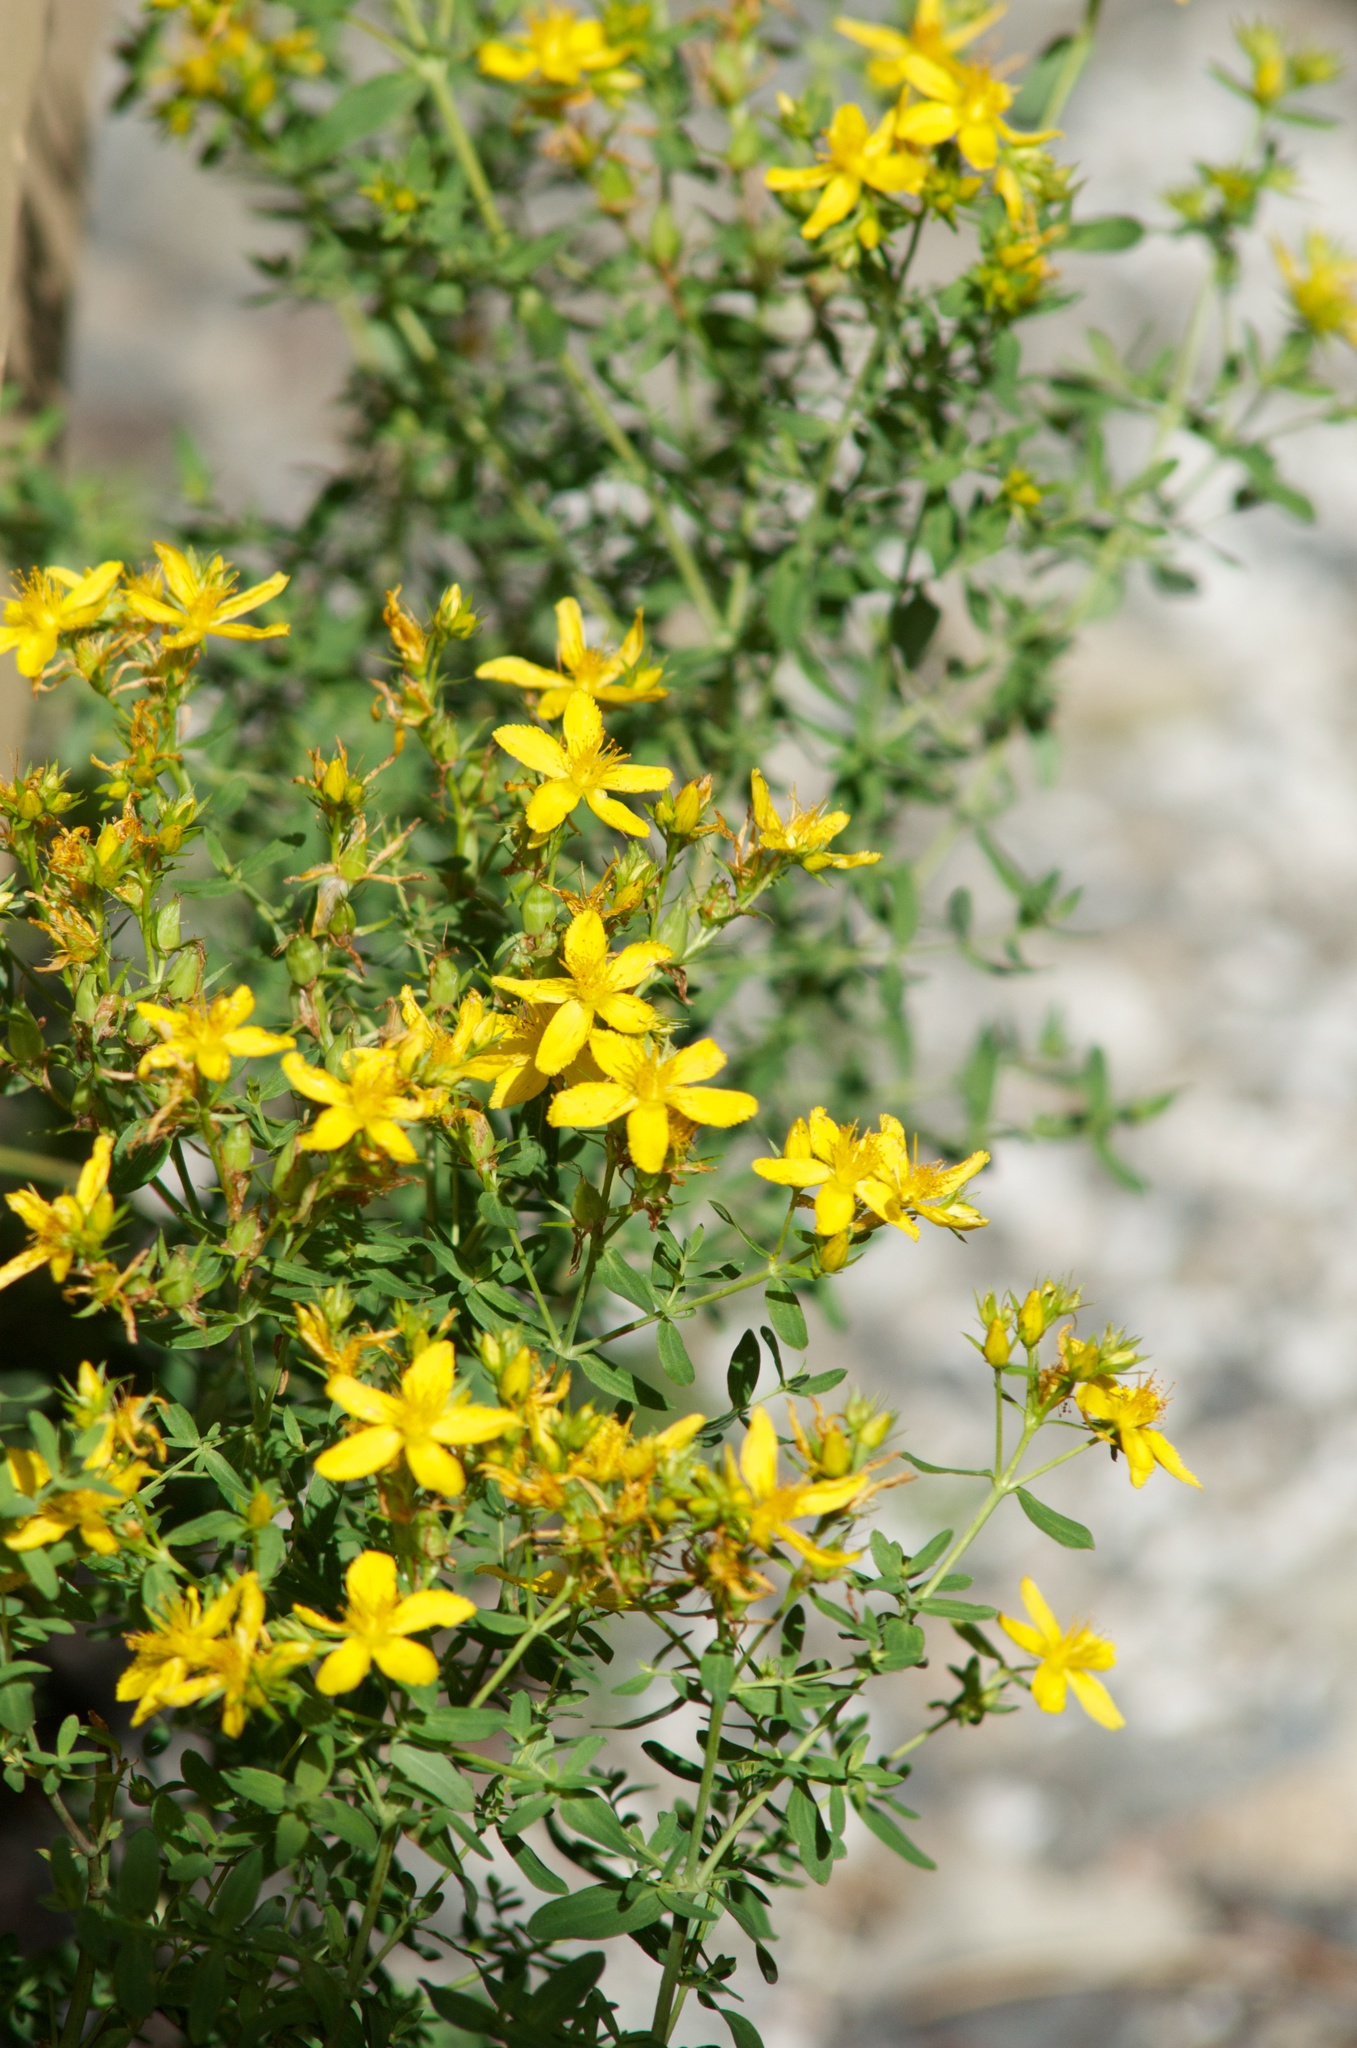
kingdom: Plantae
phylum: Tracheophyta
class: Magnoliopsida
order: Malpighiales
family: Hypericaceae
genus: Hypericum
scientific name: Hypericum perforatum
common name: Common st. johnswort
